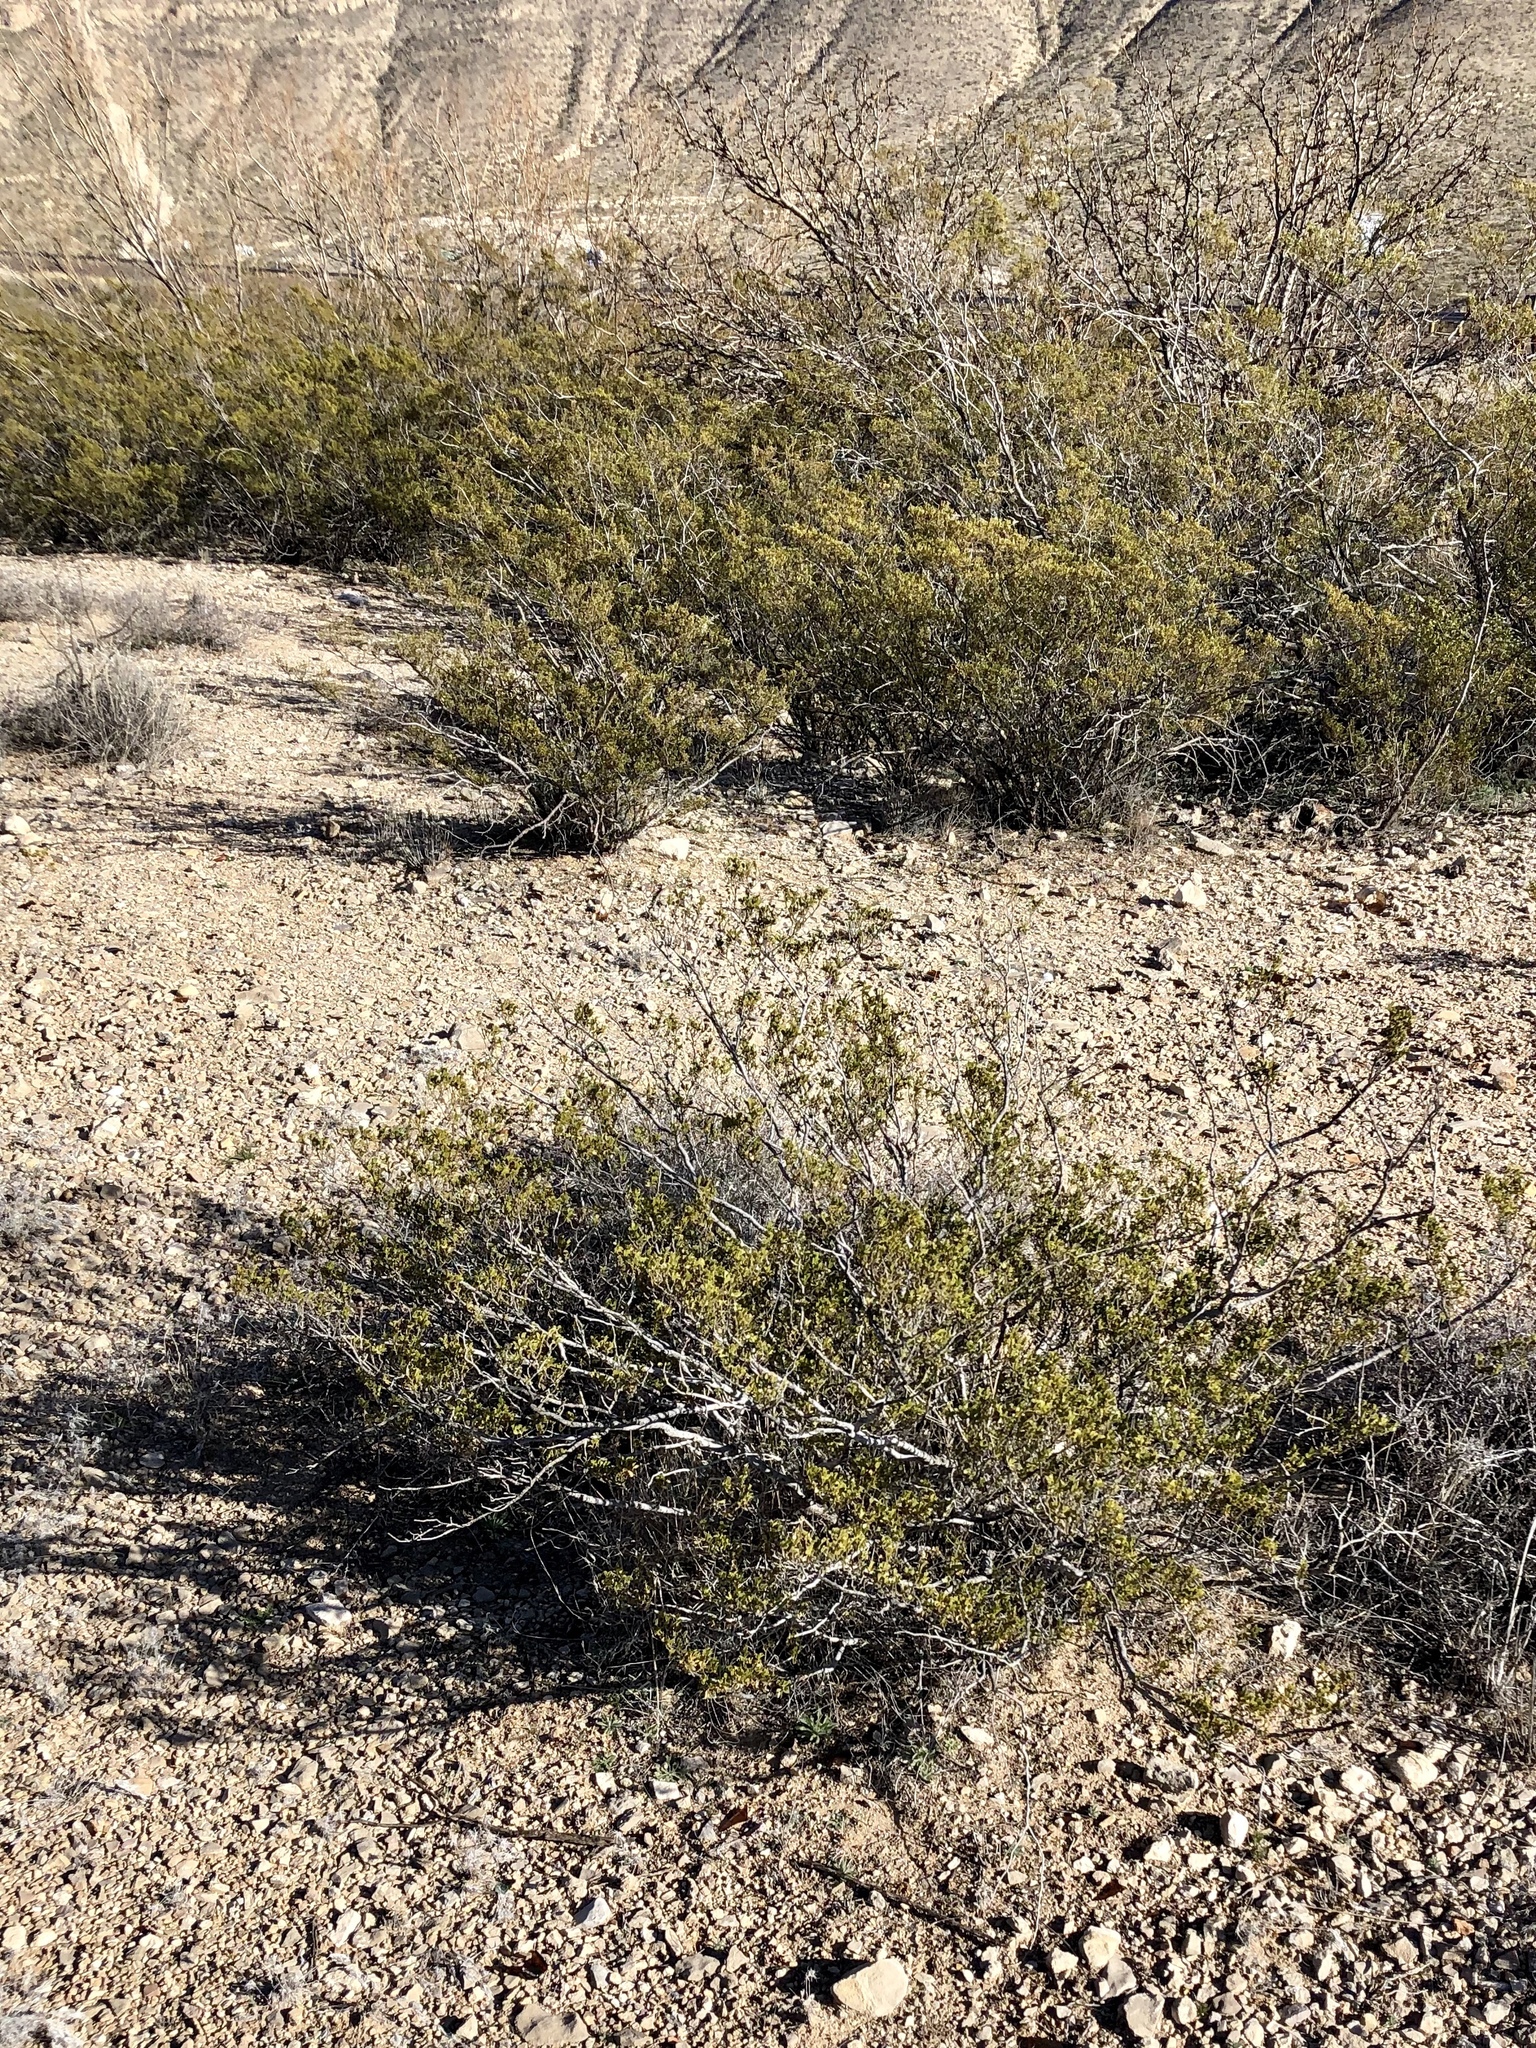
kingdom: Plantae
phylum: Tracheophyta
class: Magnoliopsida
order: Zygophyllales
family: Zygophyllaceae
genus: Larrea
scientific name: Larrea tridentata
